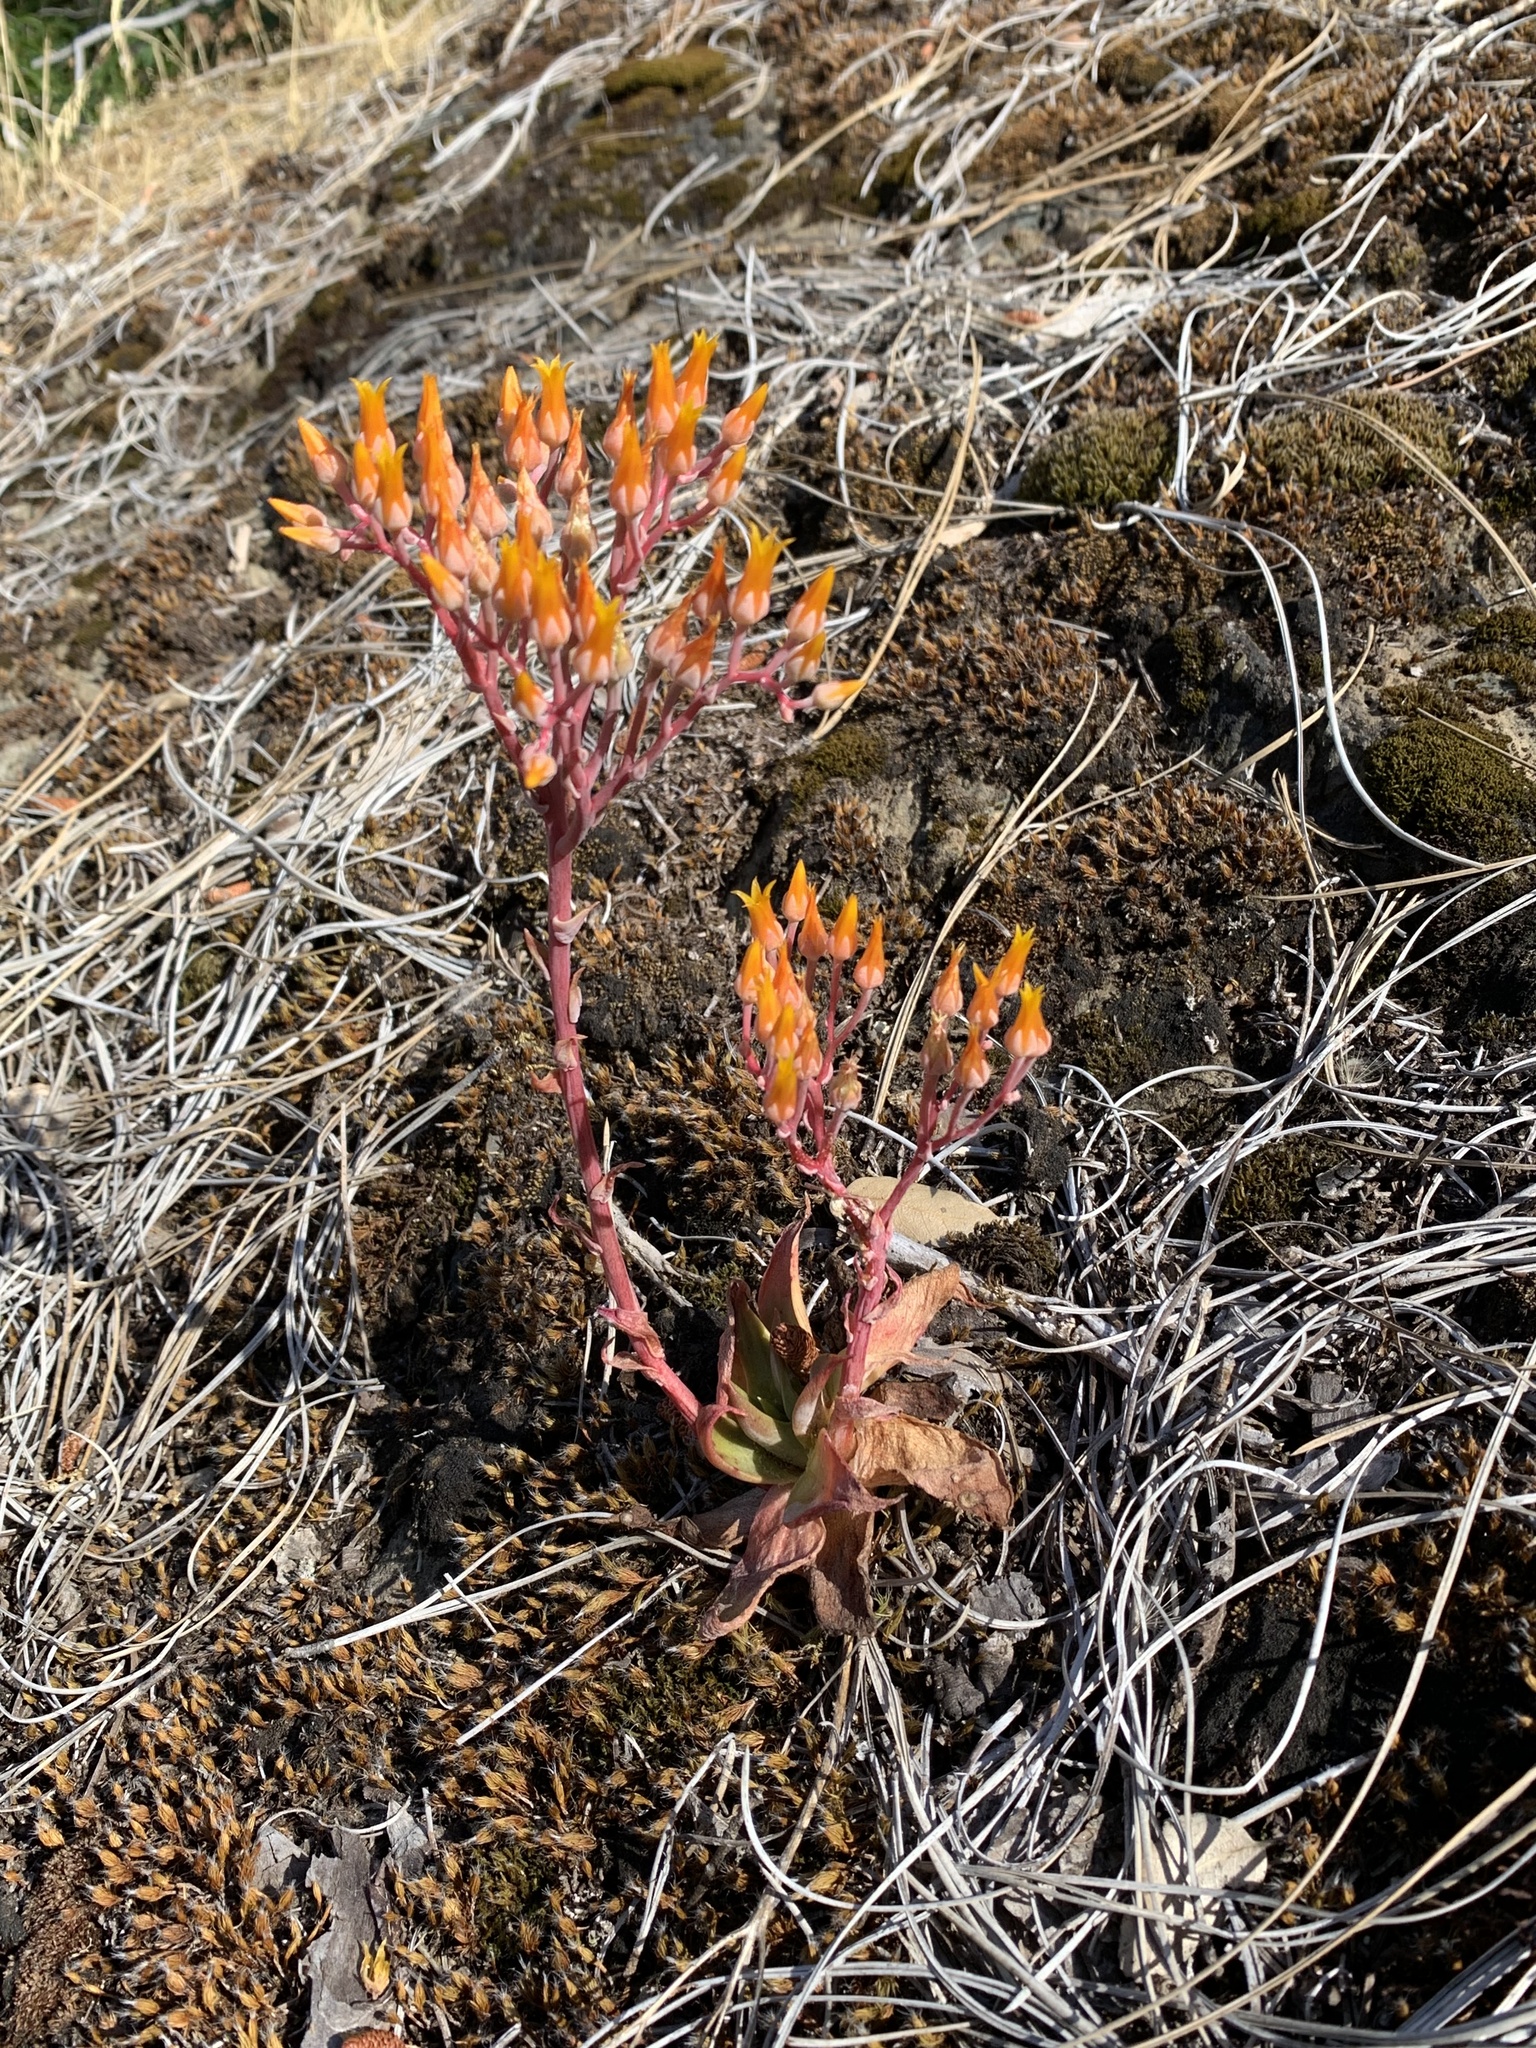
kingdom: Plantae
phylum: Tracheophyta
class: Magnoliopsida
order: Saxifragales
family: Crassulaceae
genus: Dudleya
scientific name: Dudleya cymosa
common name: Canyon dudleya
